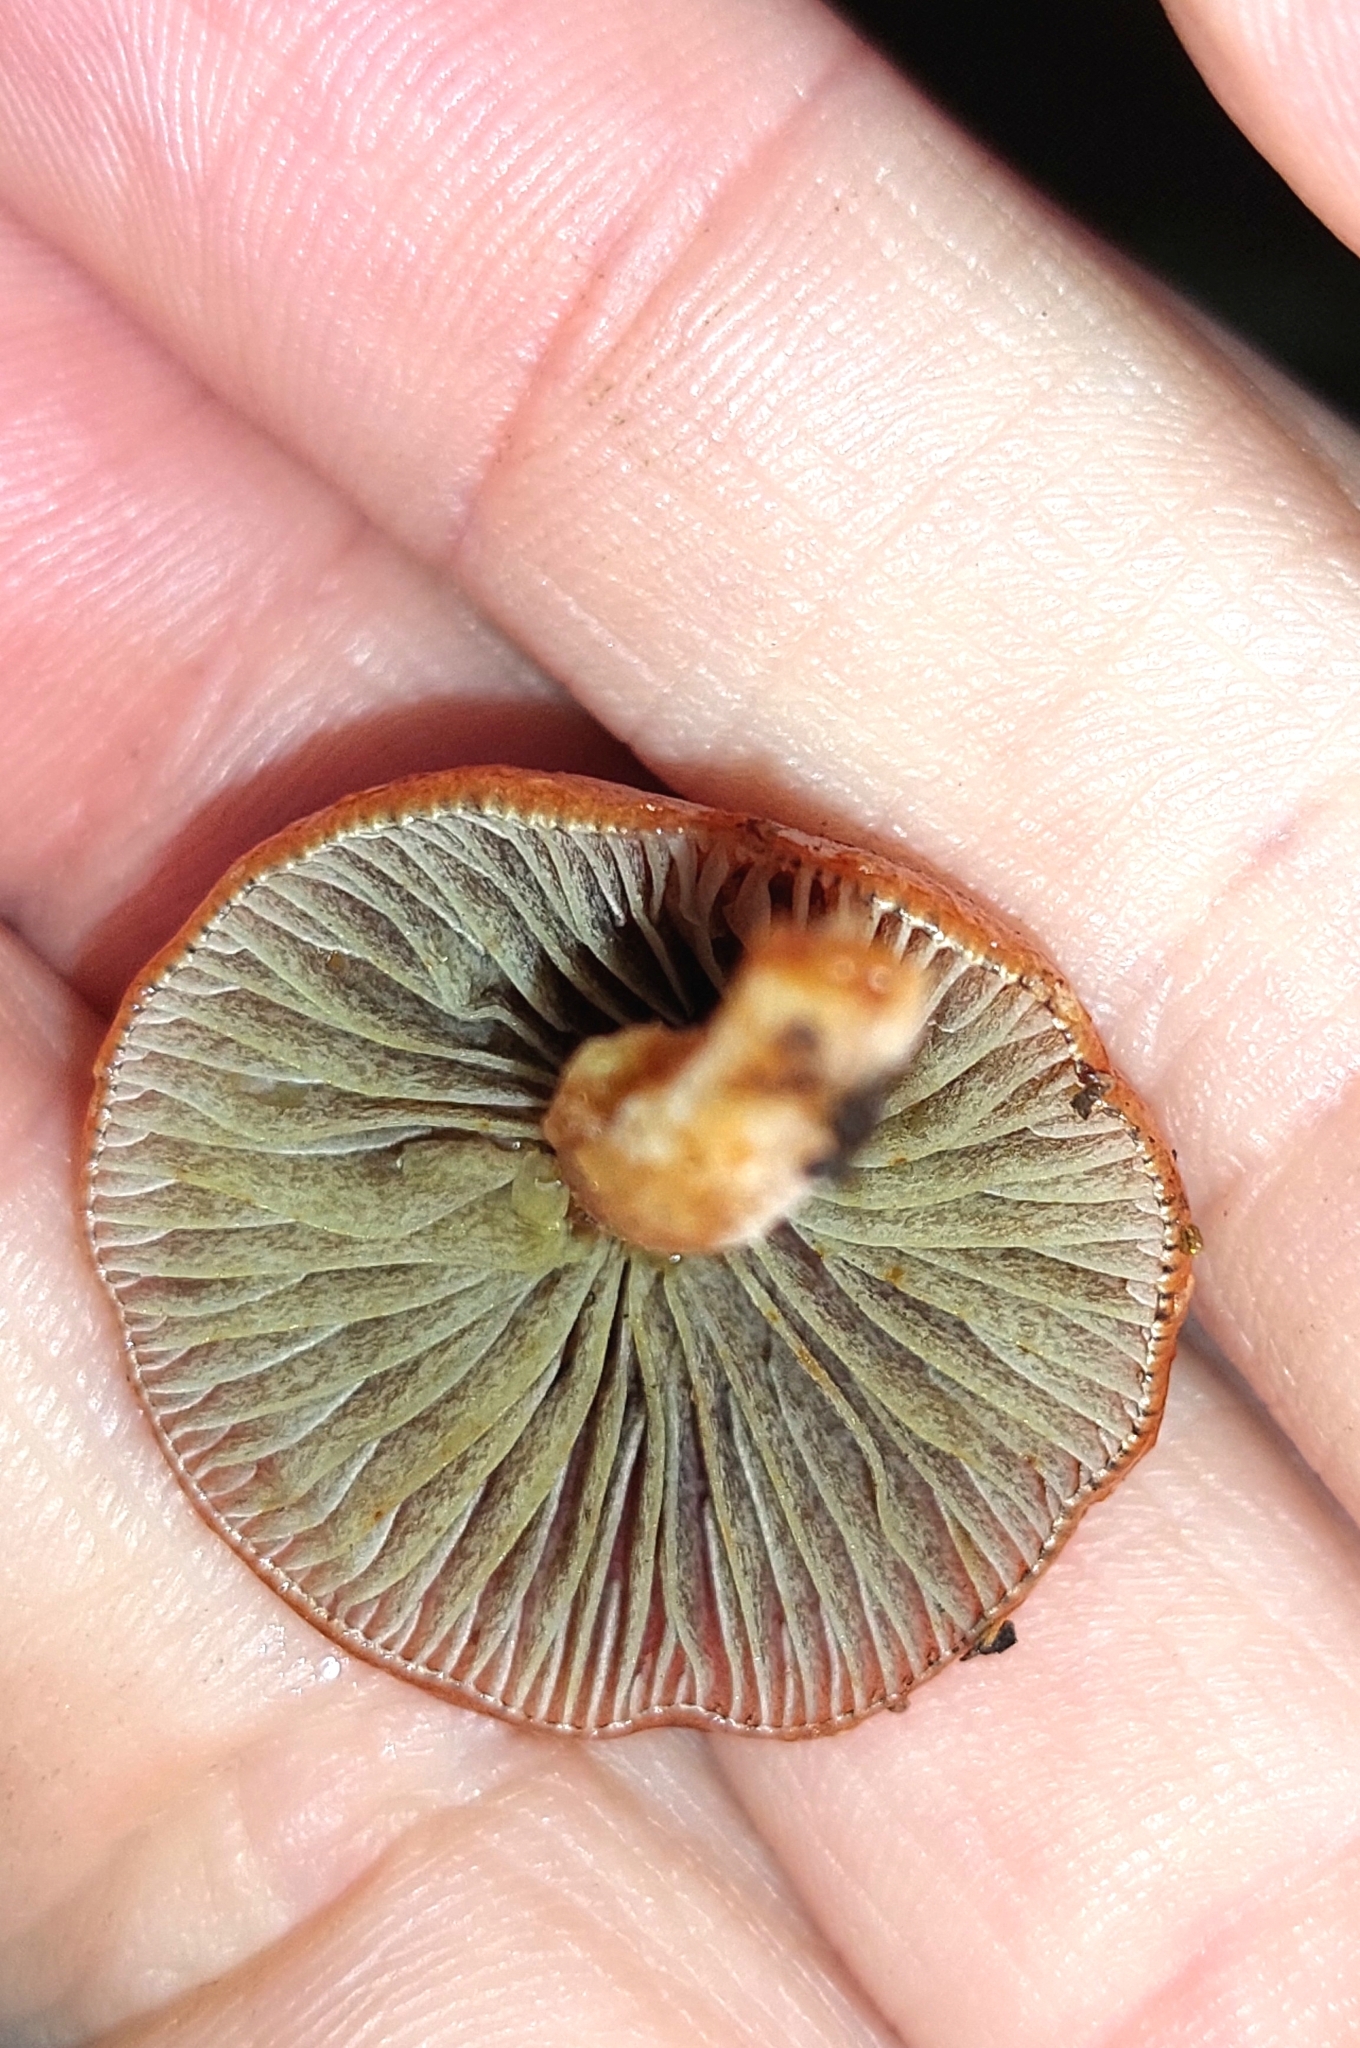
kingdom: Fungi
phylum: Basidiomycota
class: Agaricomycetes
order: Agaricales
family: Strophariaceae
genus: Leratiomyces
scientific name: Leratiomyces ceres
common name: Redlead roundhead
